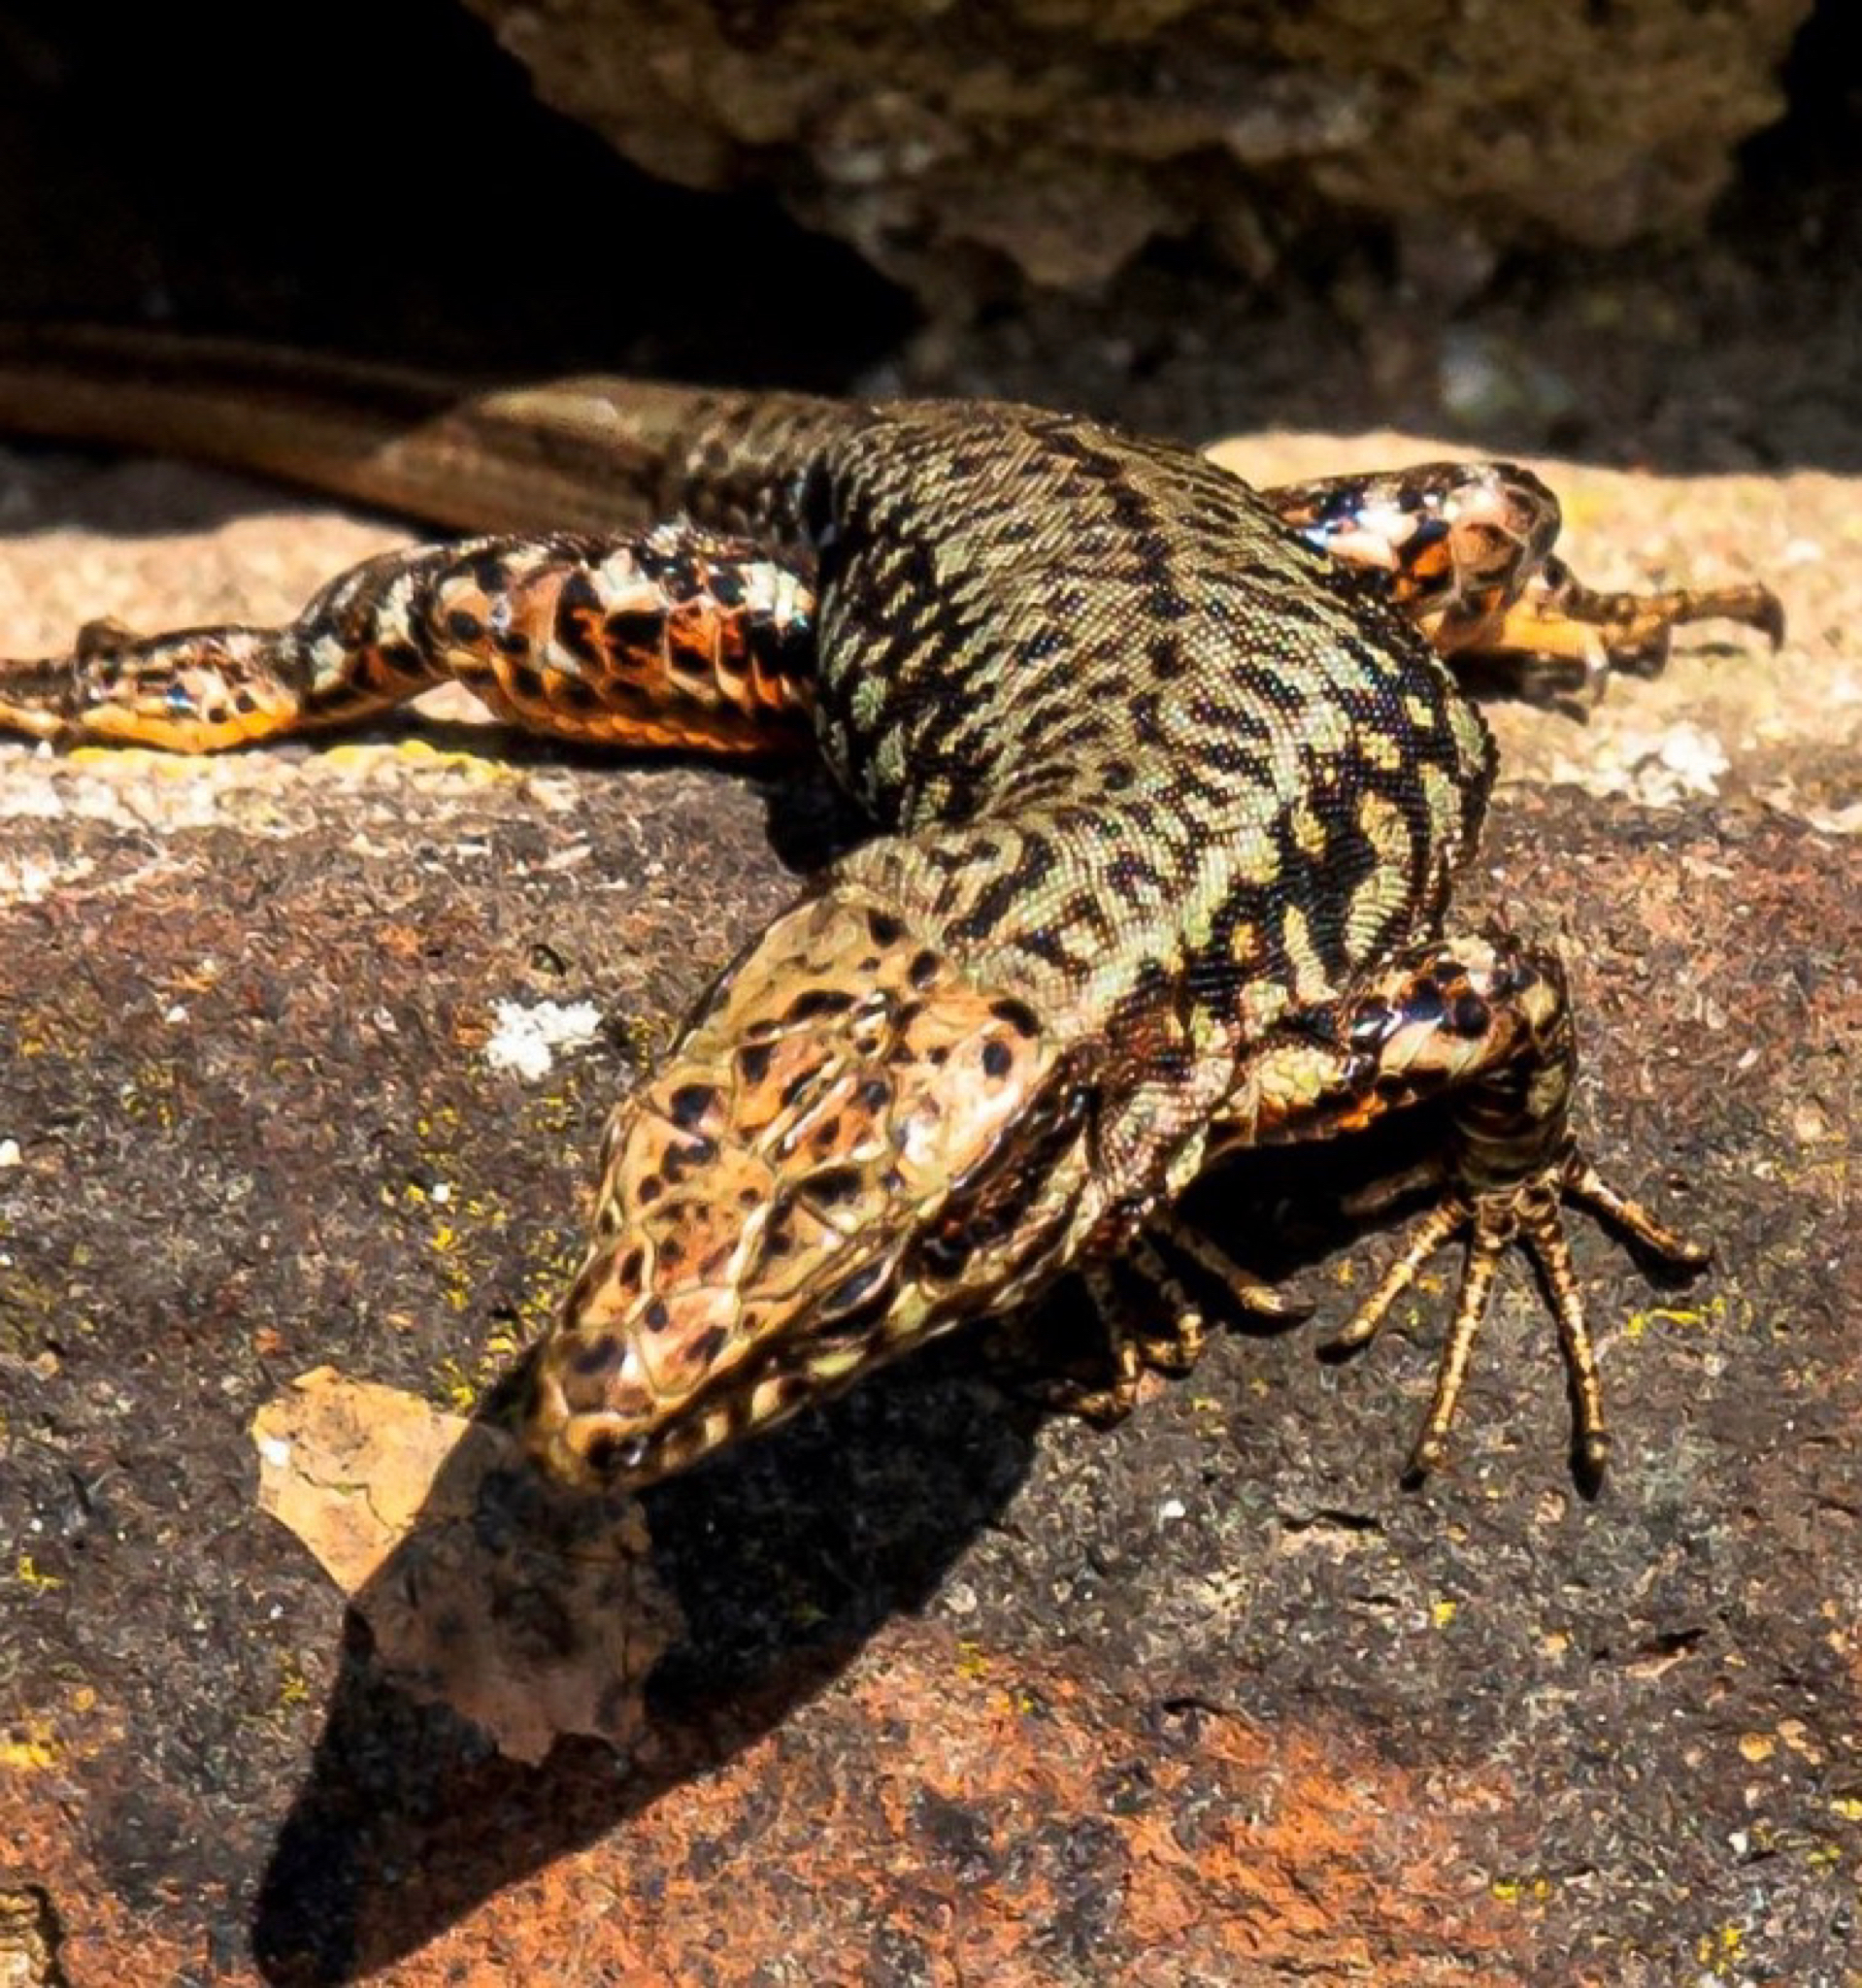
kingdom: Animalia
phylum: Chordata
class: Squamata
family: Lacertidae
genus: Podarcis
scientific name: Podarcis muralis
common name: Common wall lizard
